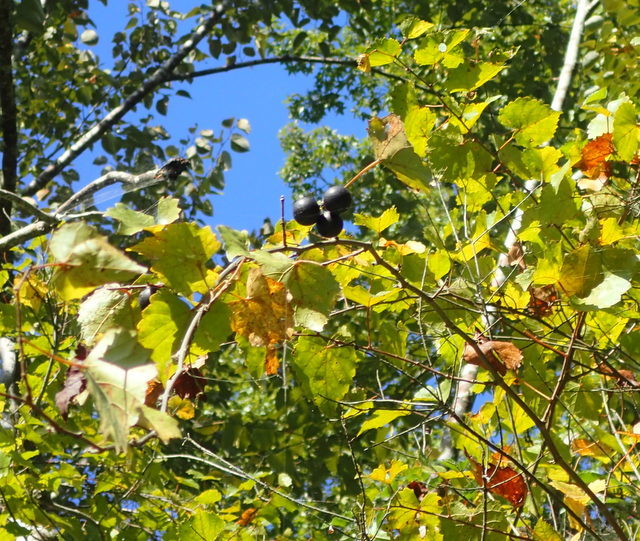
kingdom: Plantae
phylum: Tracheophyta
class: Magnoliopsida
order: Vitales
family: Vitaceae
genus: Vitis
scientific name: Vitis rotundifolia
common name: Muscadine grape
